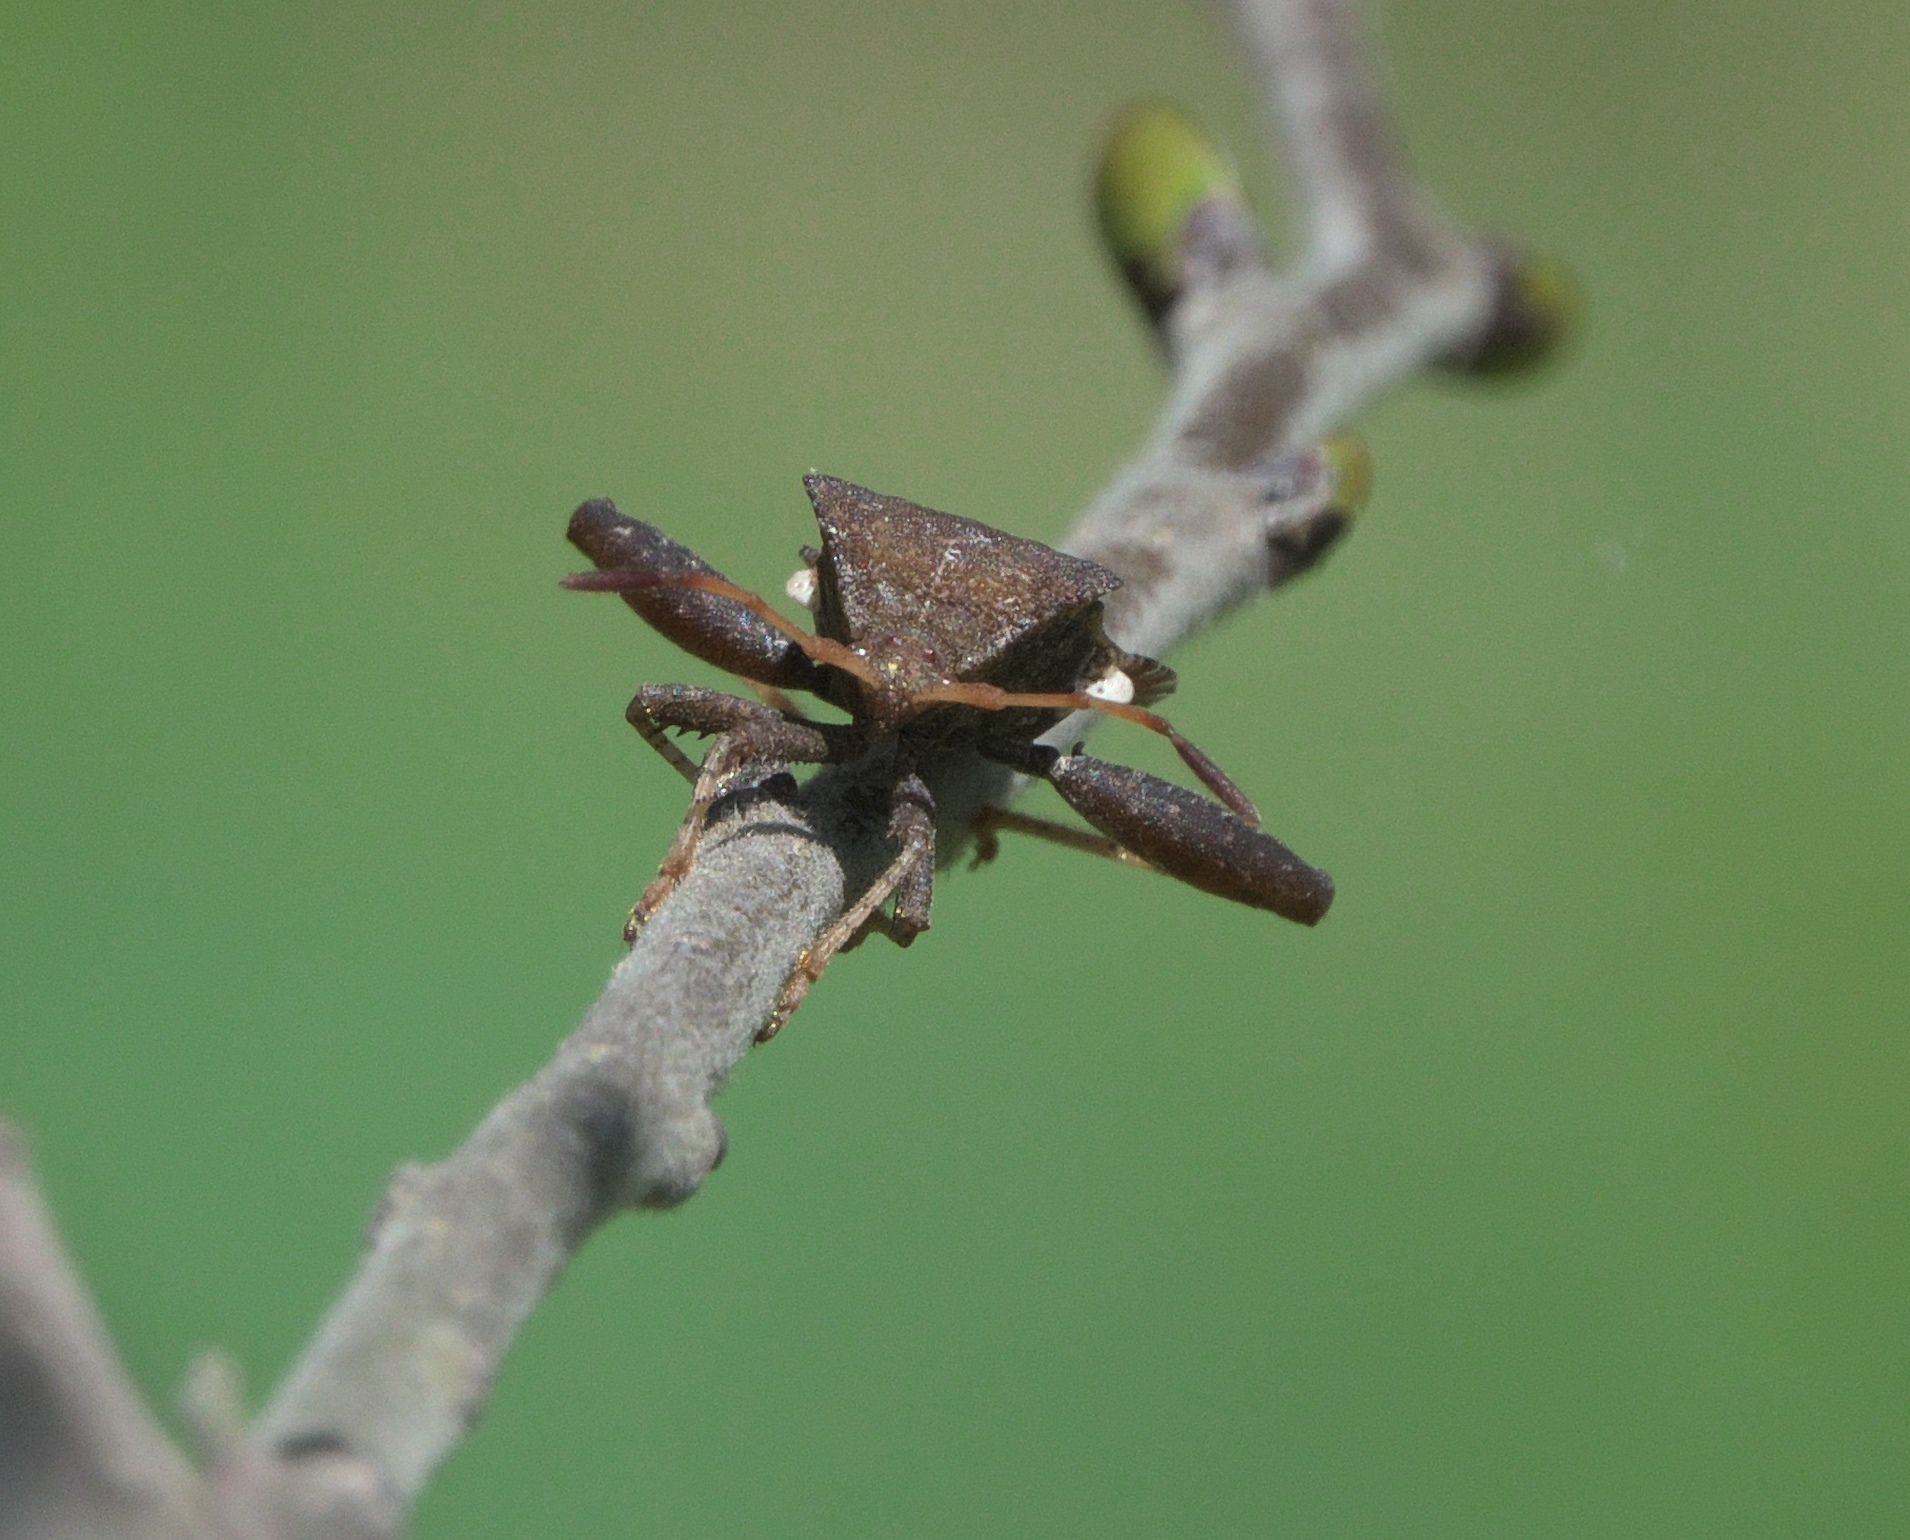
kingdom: Animalia
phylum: Arthropoda
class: Insecta
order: Hemiptera
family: Coreidae
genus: Euthochtha
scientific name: Euthochtha galeator
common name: Helmeted squash bug
